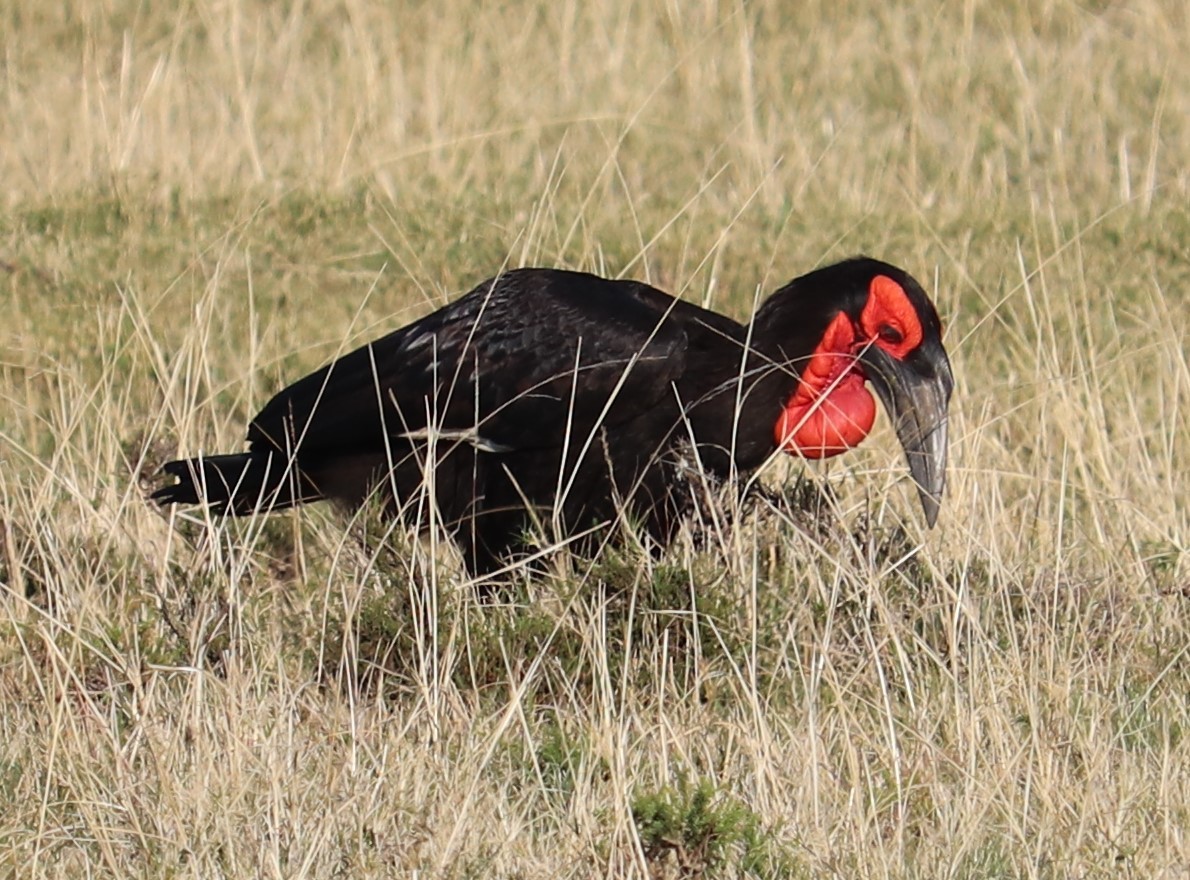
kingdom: Animalia
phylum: Chordata
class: Aves
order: Bucerotiformes
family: Bucorvidae
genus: Bucorvus
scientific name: Bucorvus leadbeateri
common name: Southern ground-hornbill
